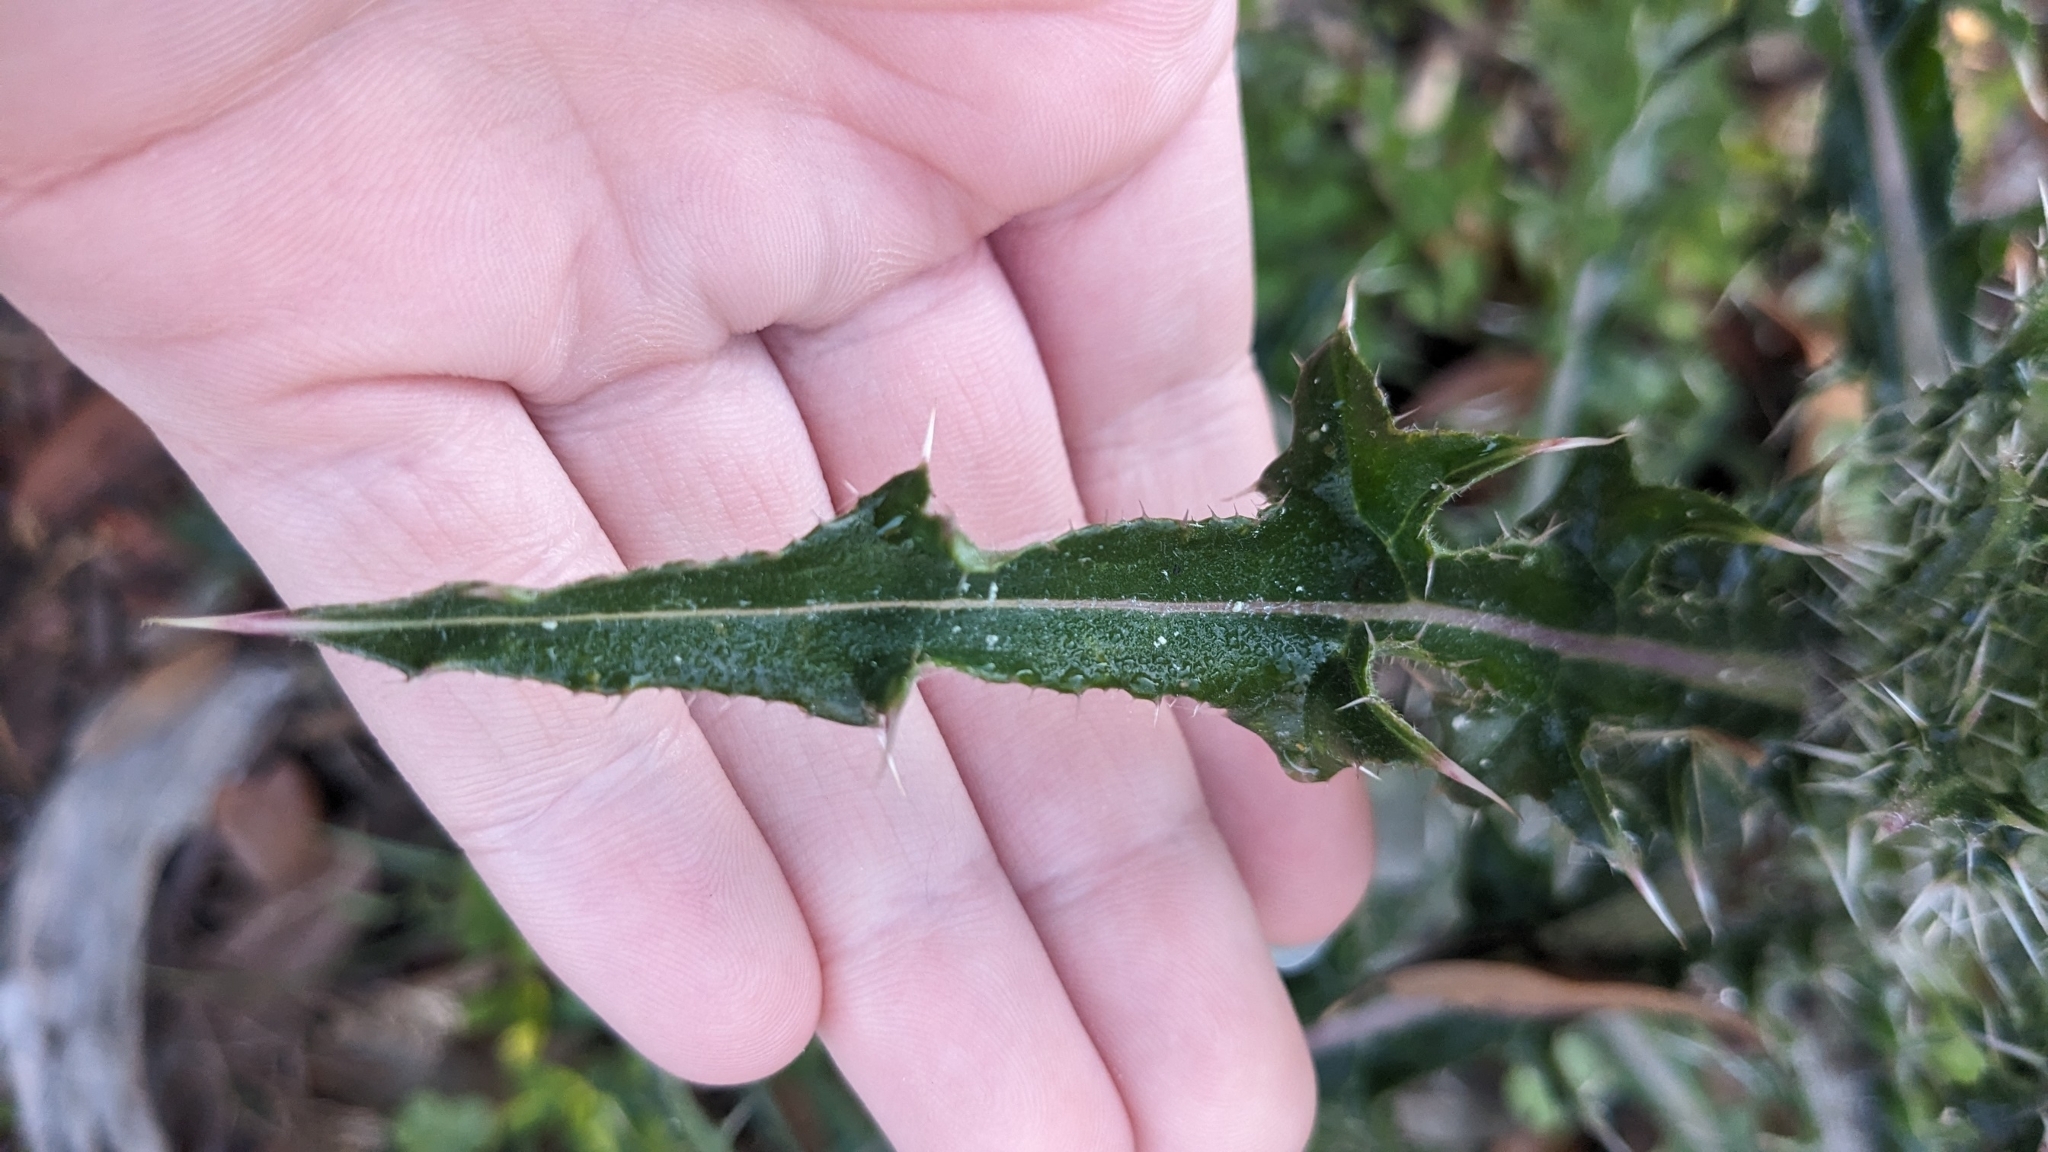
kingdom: Plantae
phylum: Tracheophyta
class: Magnoliopsida
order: Asterales
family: Asteraceae
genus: Cirsium
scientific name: Cirsium horridulum
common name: Bristly thistle
